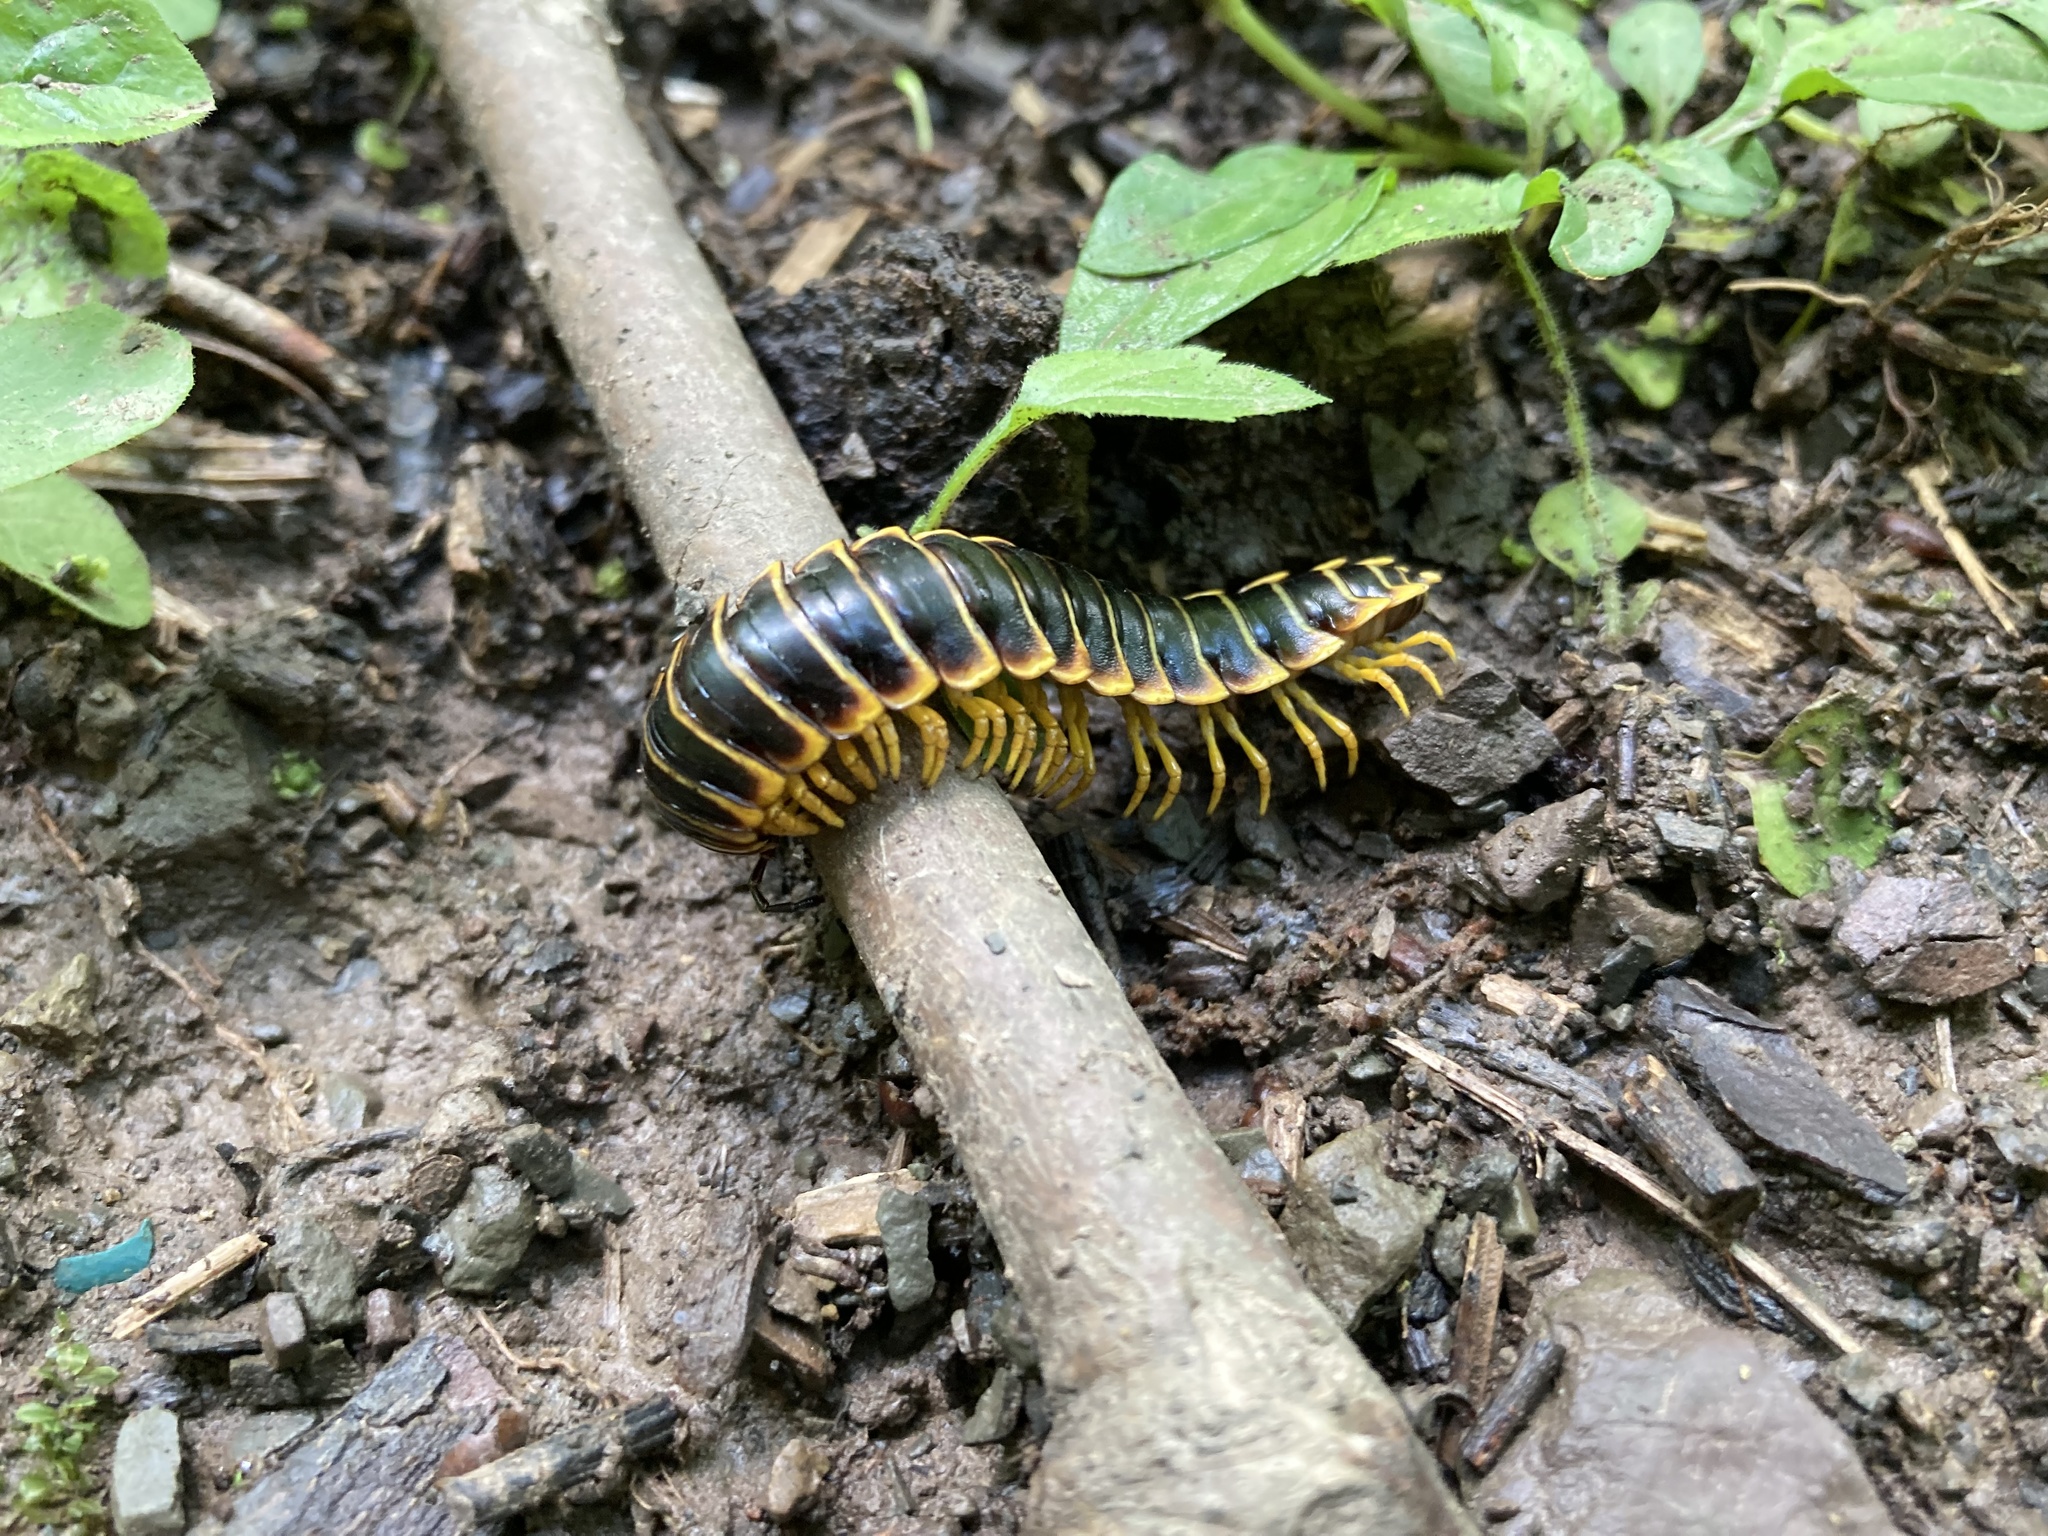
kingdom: Animalia
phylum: Arthropoda
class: Diplopoda
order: Polydesmida
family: Xystodesmidae
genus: Apheloria
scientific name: Apheloria virginiensis
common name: Black-and-gold flat millipede
